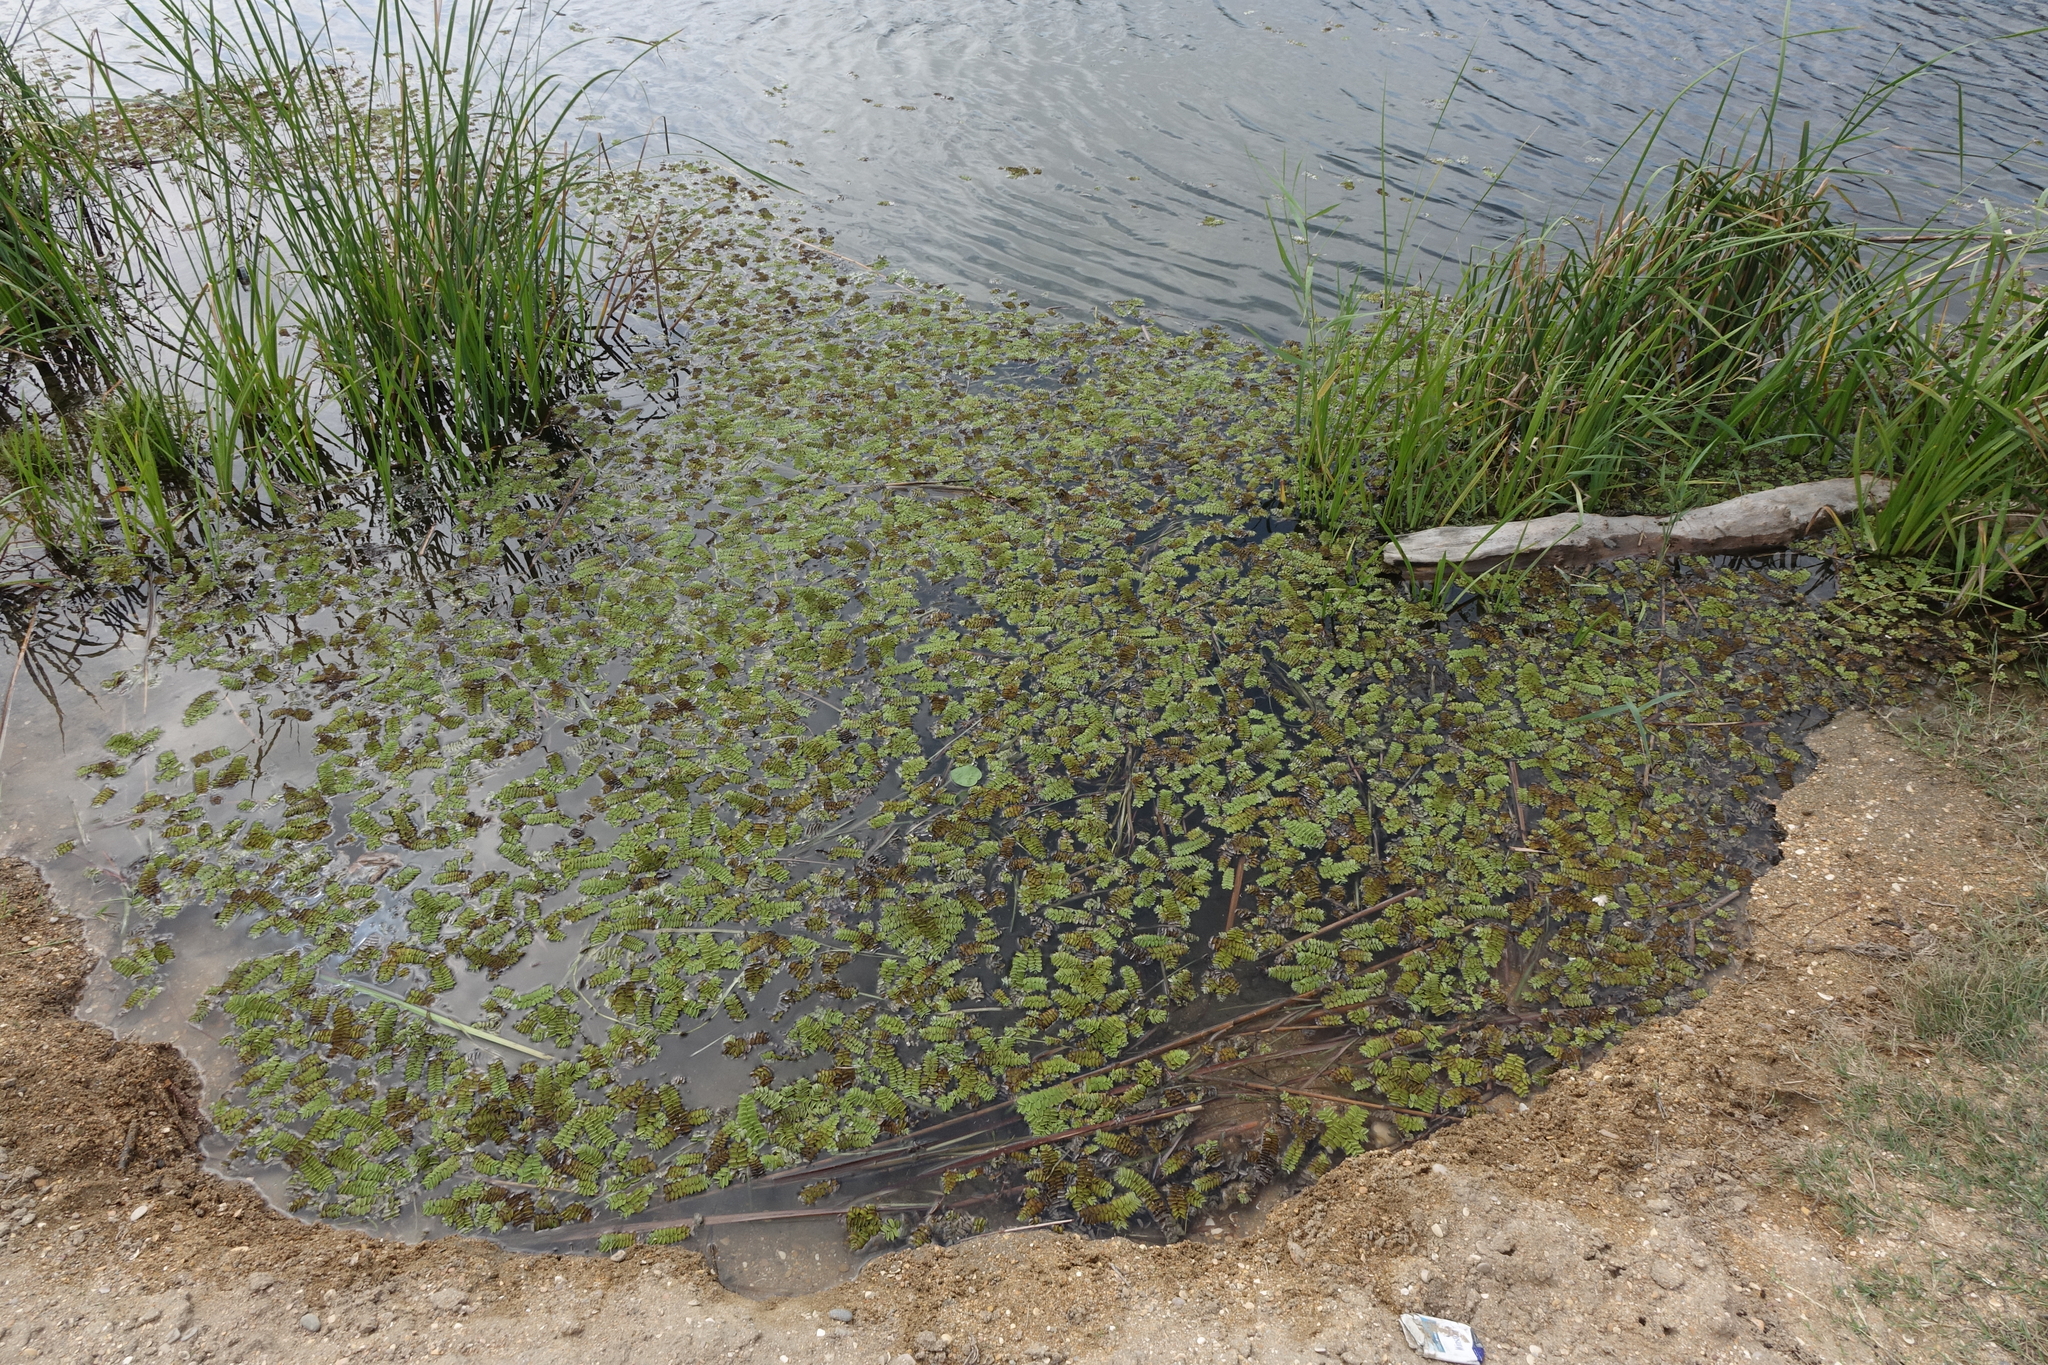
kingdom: Plantae
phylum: Tracheophyta
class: Polypodiopsida
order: Salviniales
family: Salviniaceae
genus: Salvinia
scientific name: Salvinia natans
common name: Floating fern
